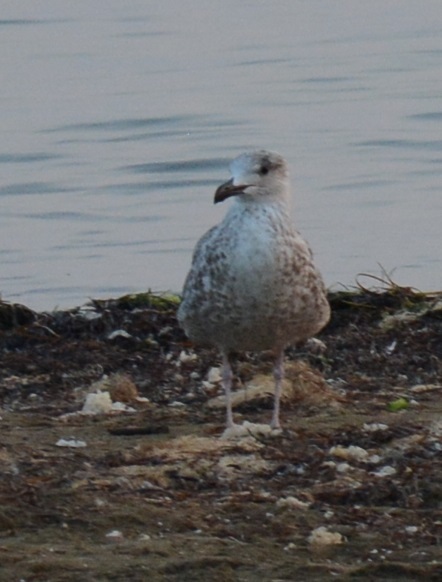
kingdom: Animalia
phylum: Chordata
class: Aves
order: Charadriiformes
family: Laridae
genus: Larus
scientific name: Larus michahellis
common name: Yellow-legged gull
